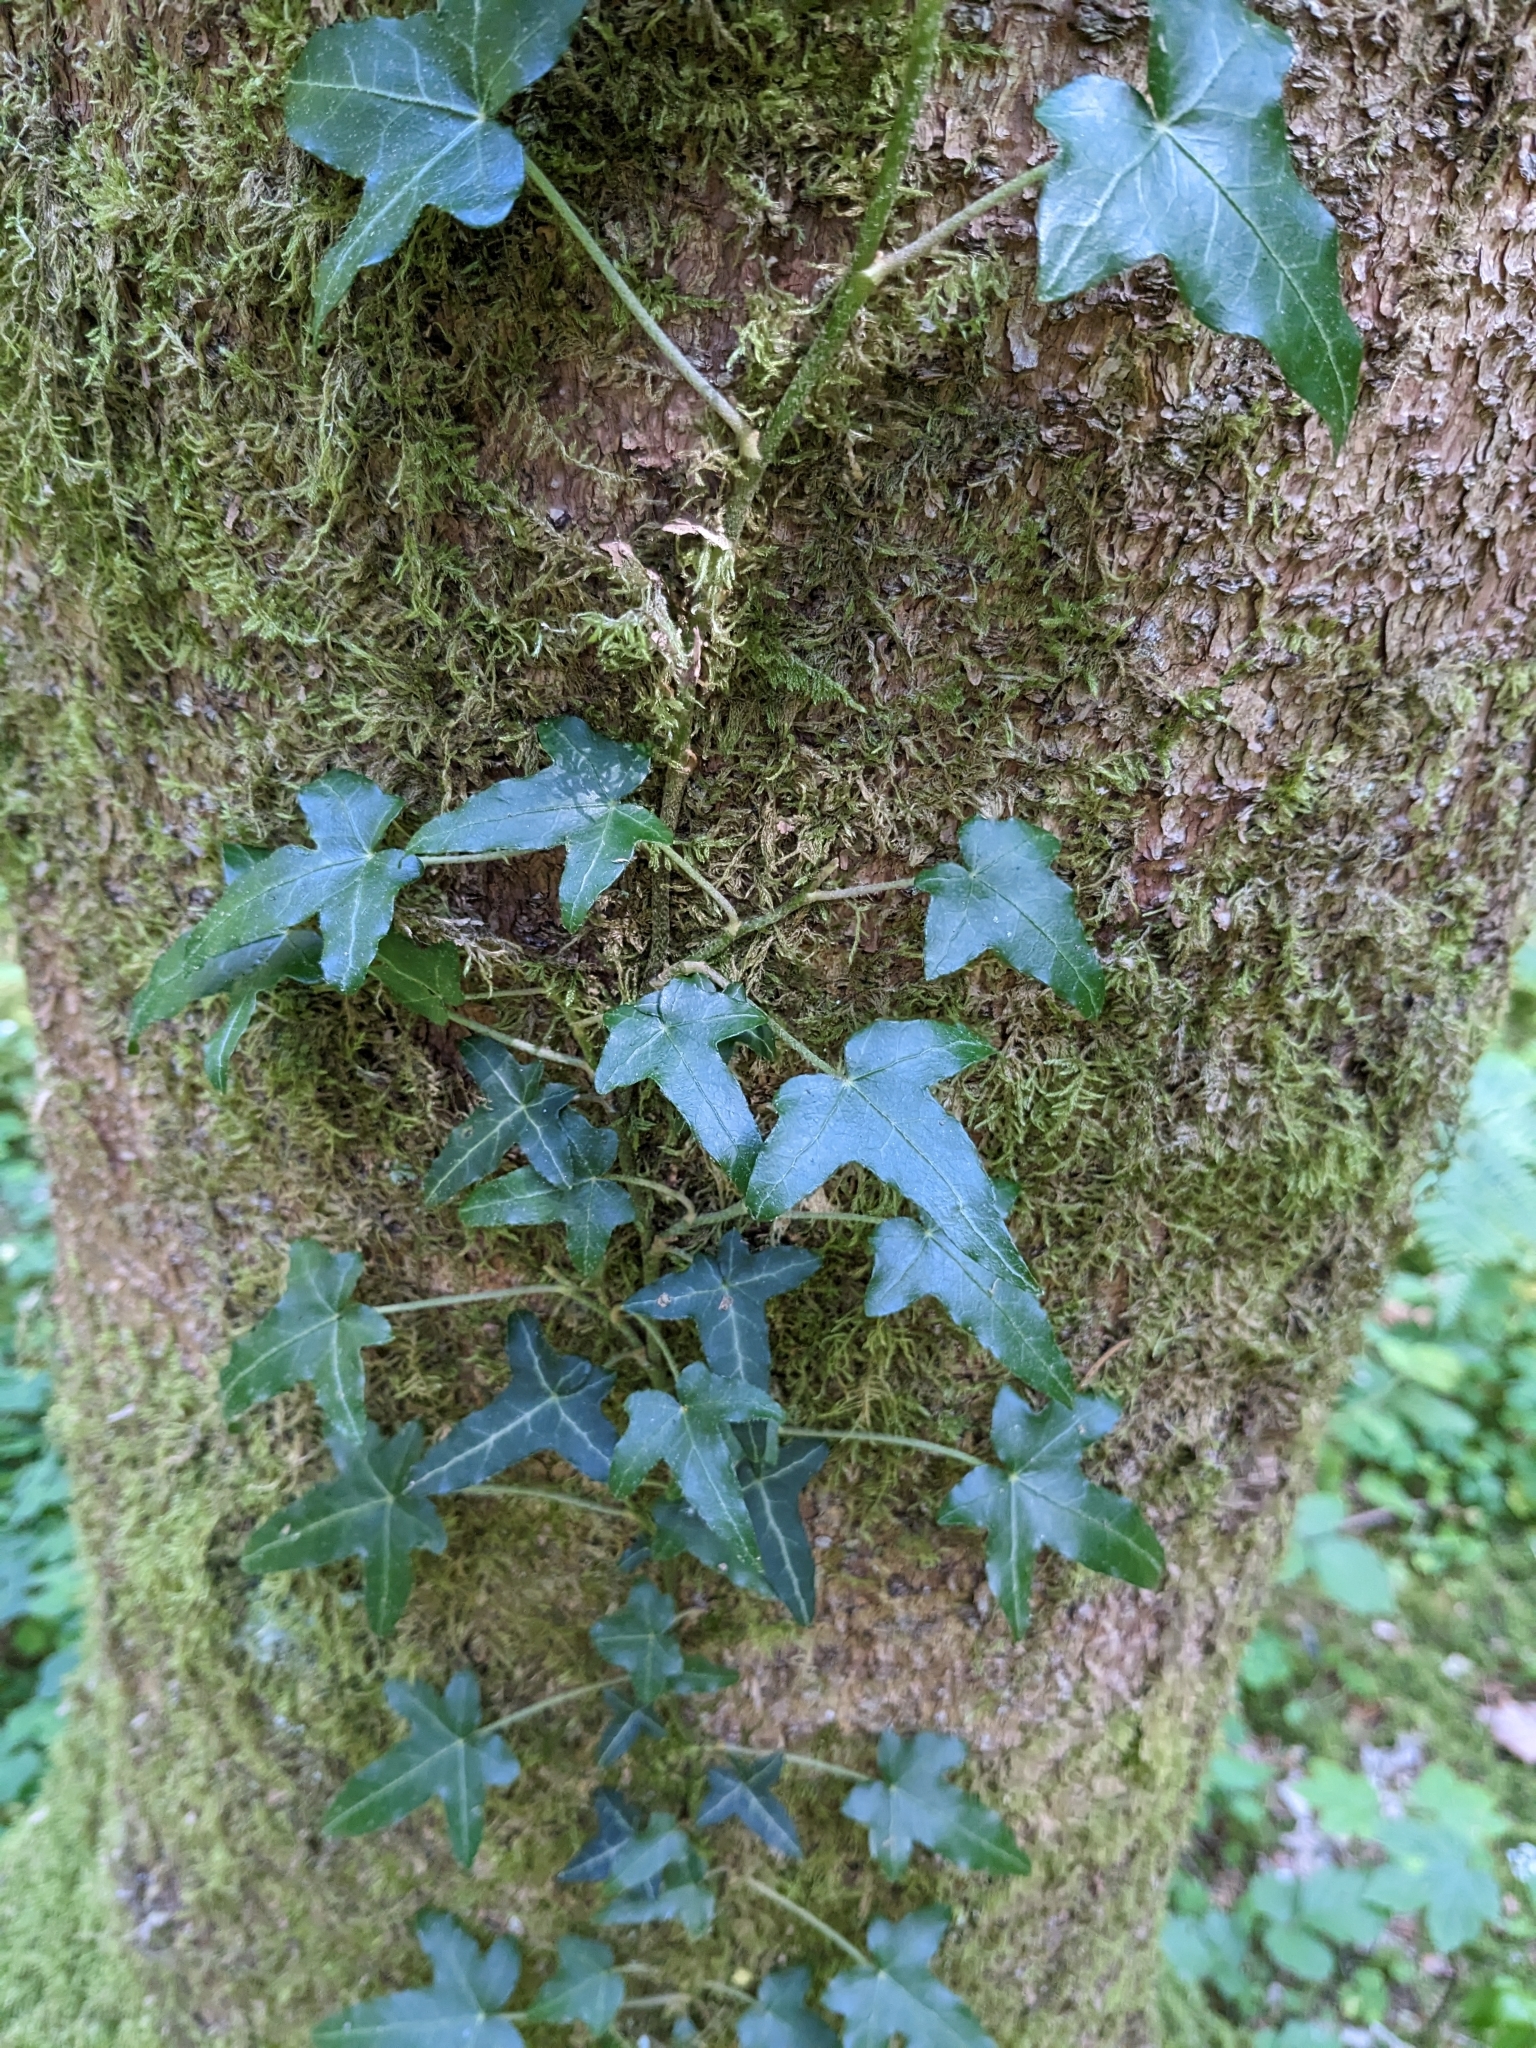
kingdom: Plantae
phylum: Tracheophyta
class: Magnoliopsida
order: Apiales
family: Araliaceae
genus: Hedera
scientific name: Hedera helix
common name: Ivy
